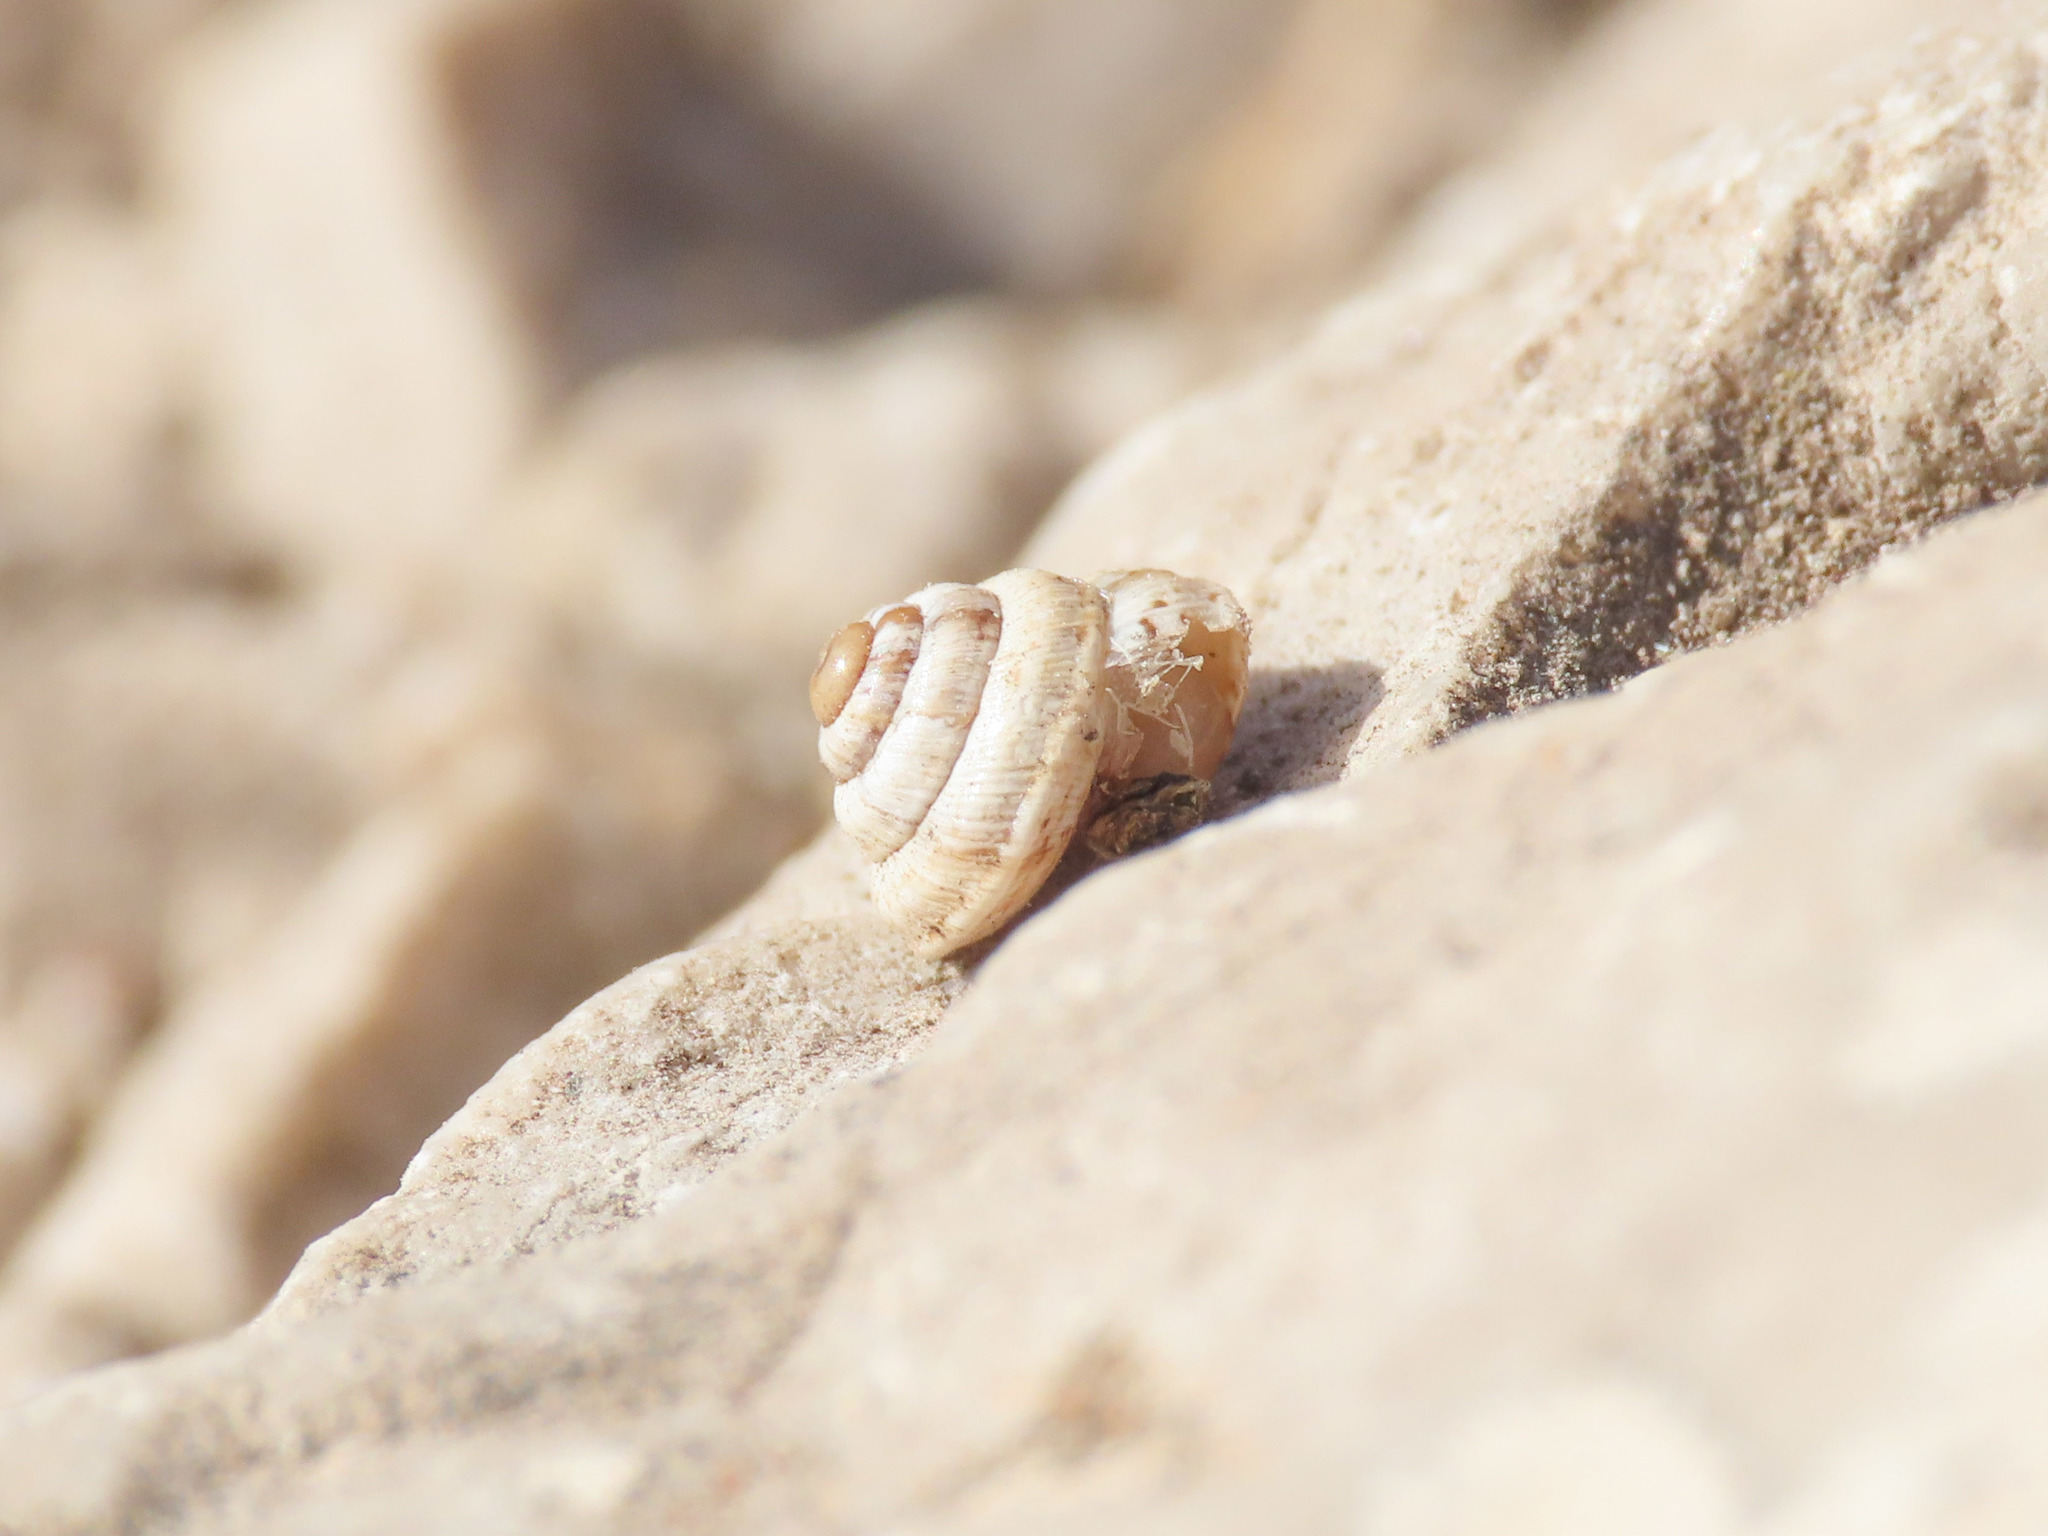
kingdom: Animalia
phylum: Mollusca
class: Gastropoda
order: Stylommatophora
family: Geomitridae
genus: Trochoidea
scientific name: Trochoidea trochoides
